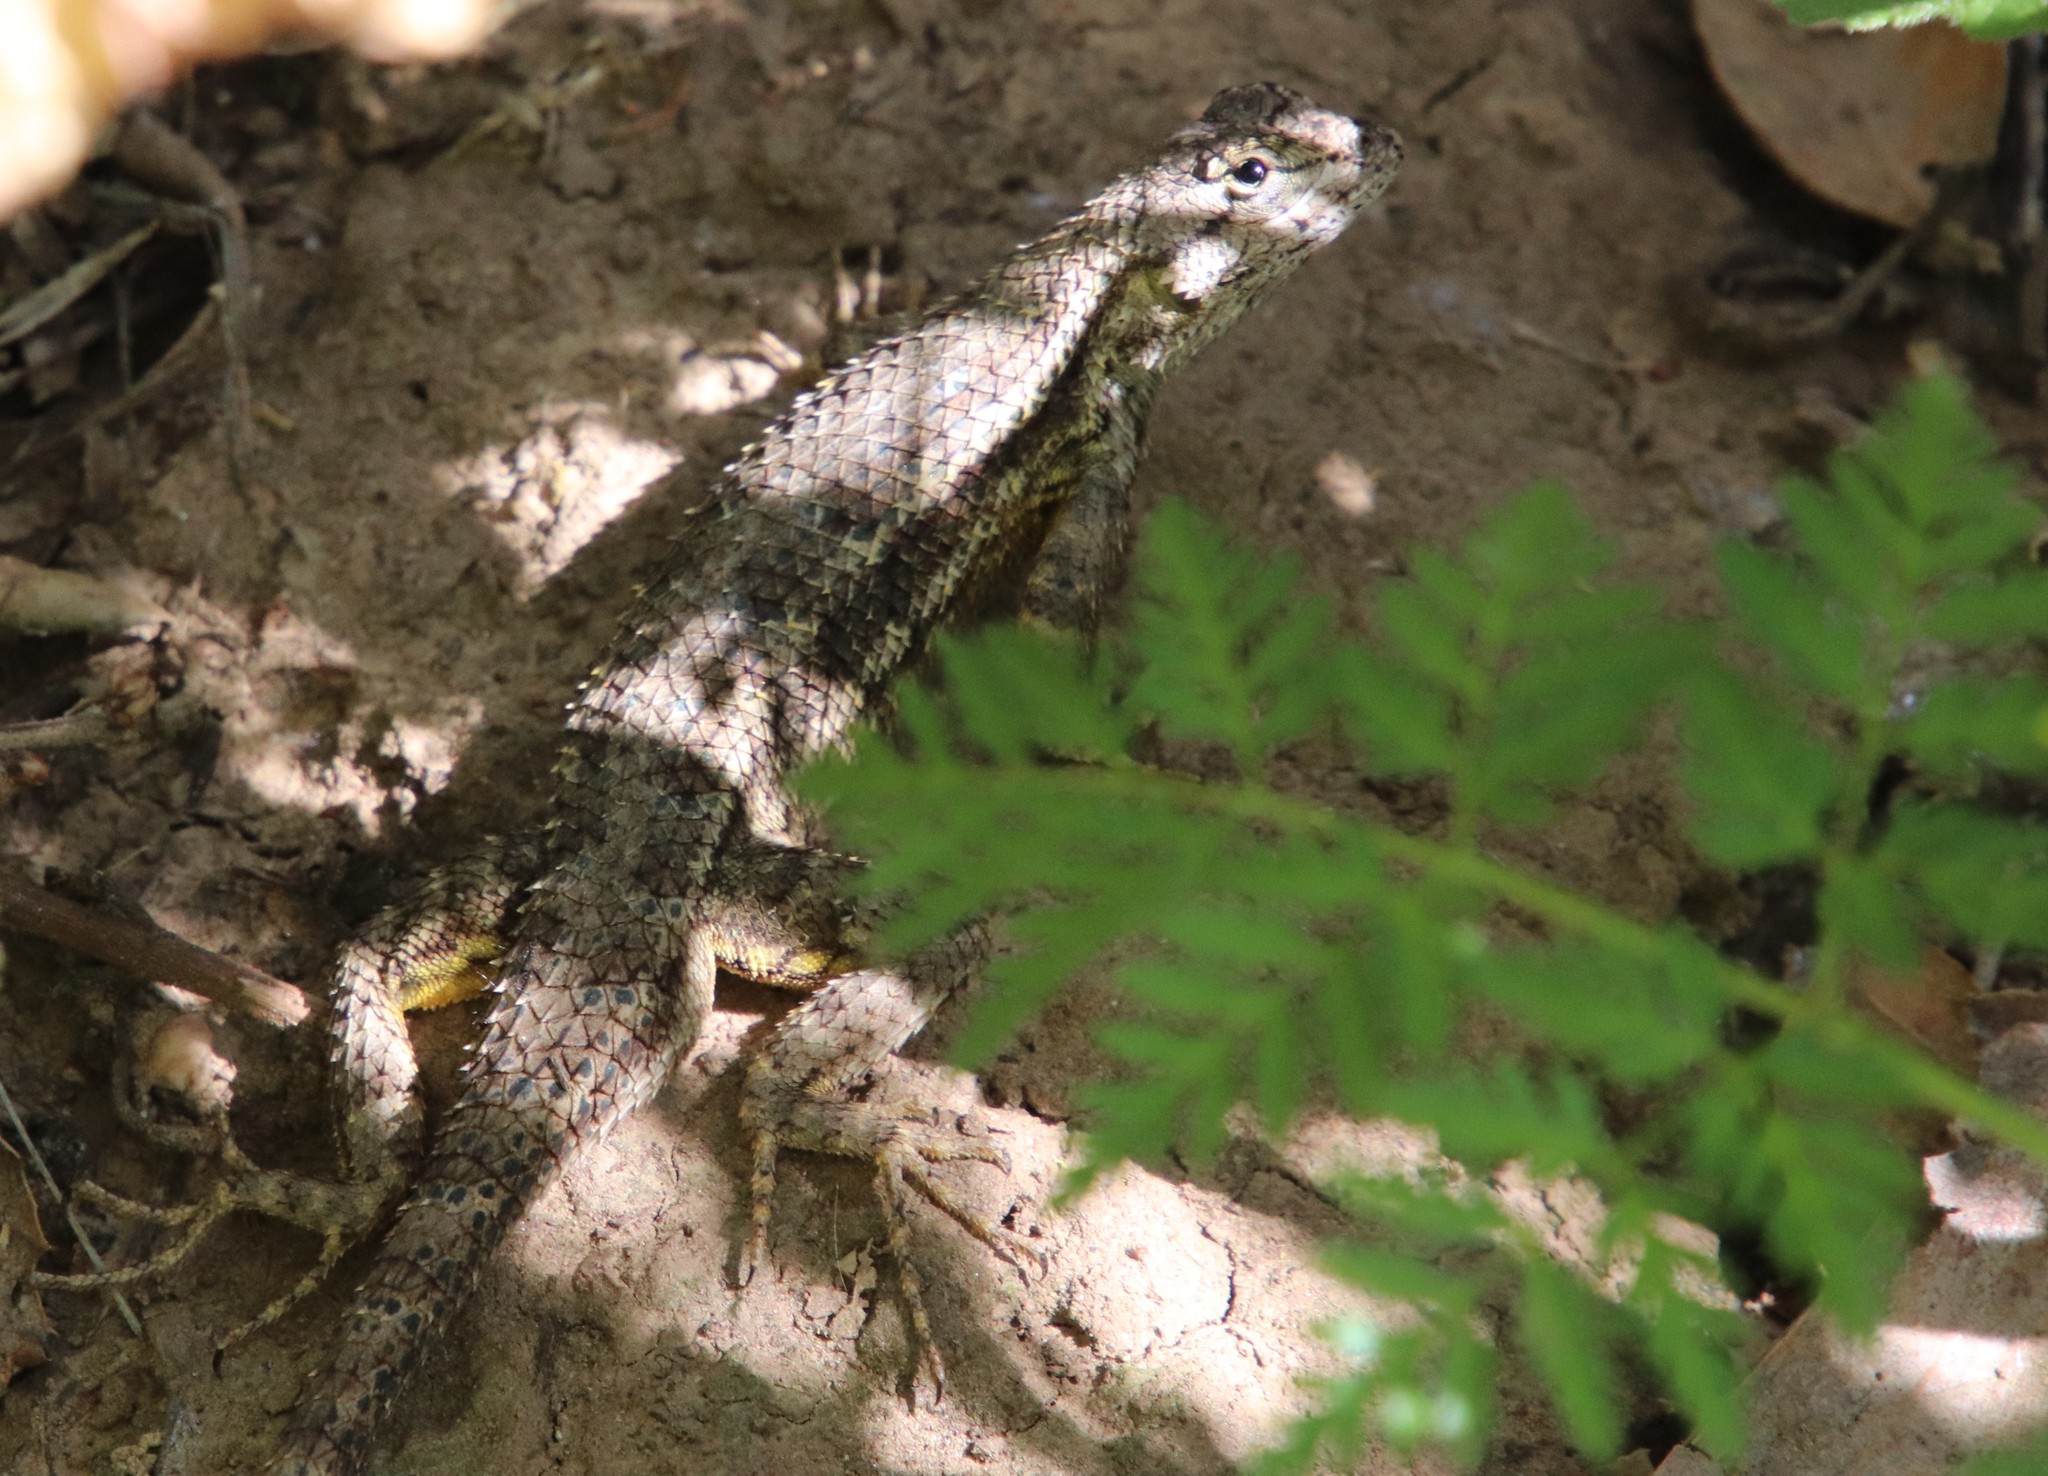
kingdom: Animalia
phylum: Chordata
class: Squamata
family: Phrynosomatidae
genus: Sceloporus
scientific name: Sceloporus occidentalis
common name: Western fence lizard
